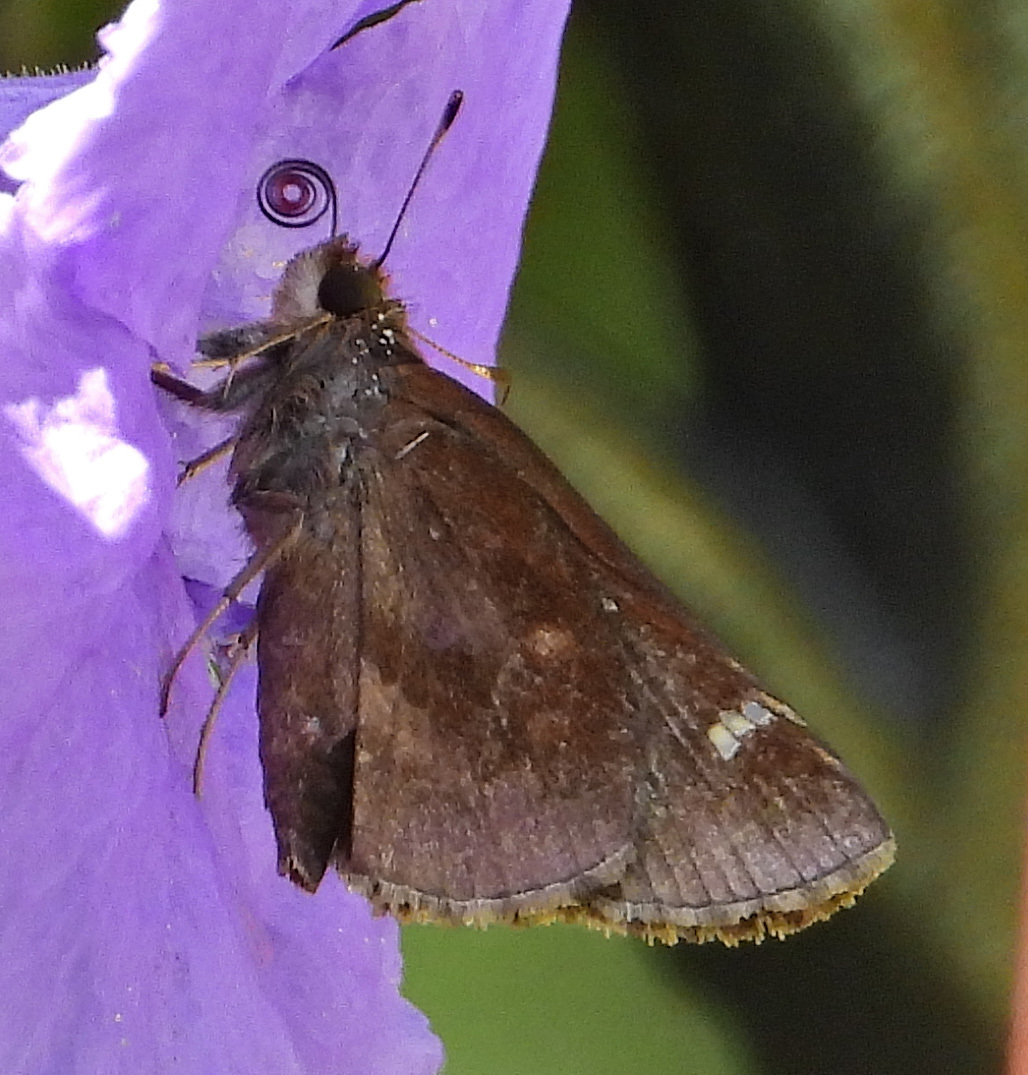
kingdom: Animalia
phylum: Arthropoda
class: Insecta
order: Lepidoptera
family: Hesperiidae
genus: Lerema
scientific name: Lerema accius
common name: Clouded skipper
